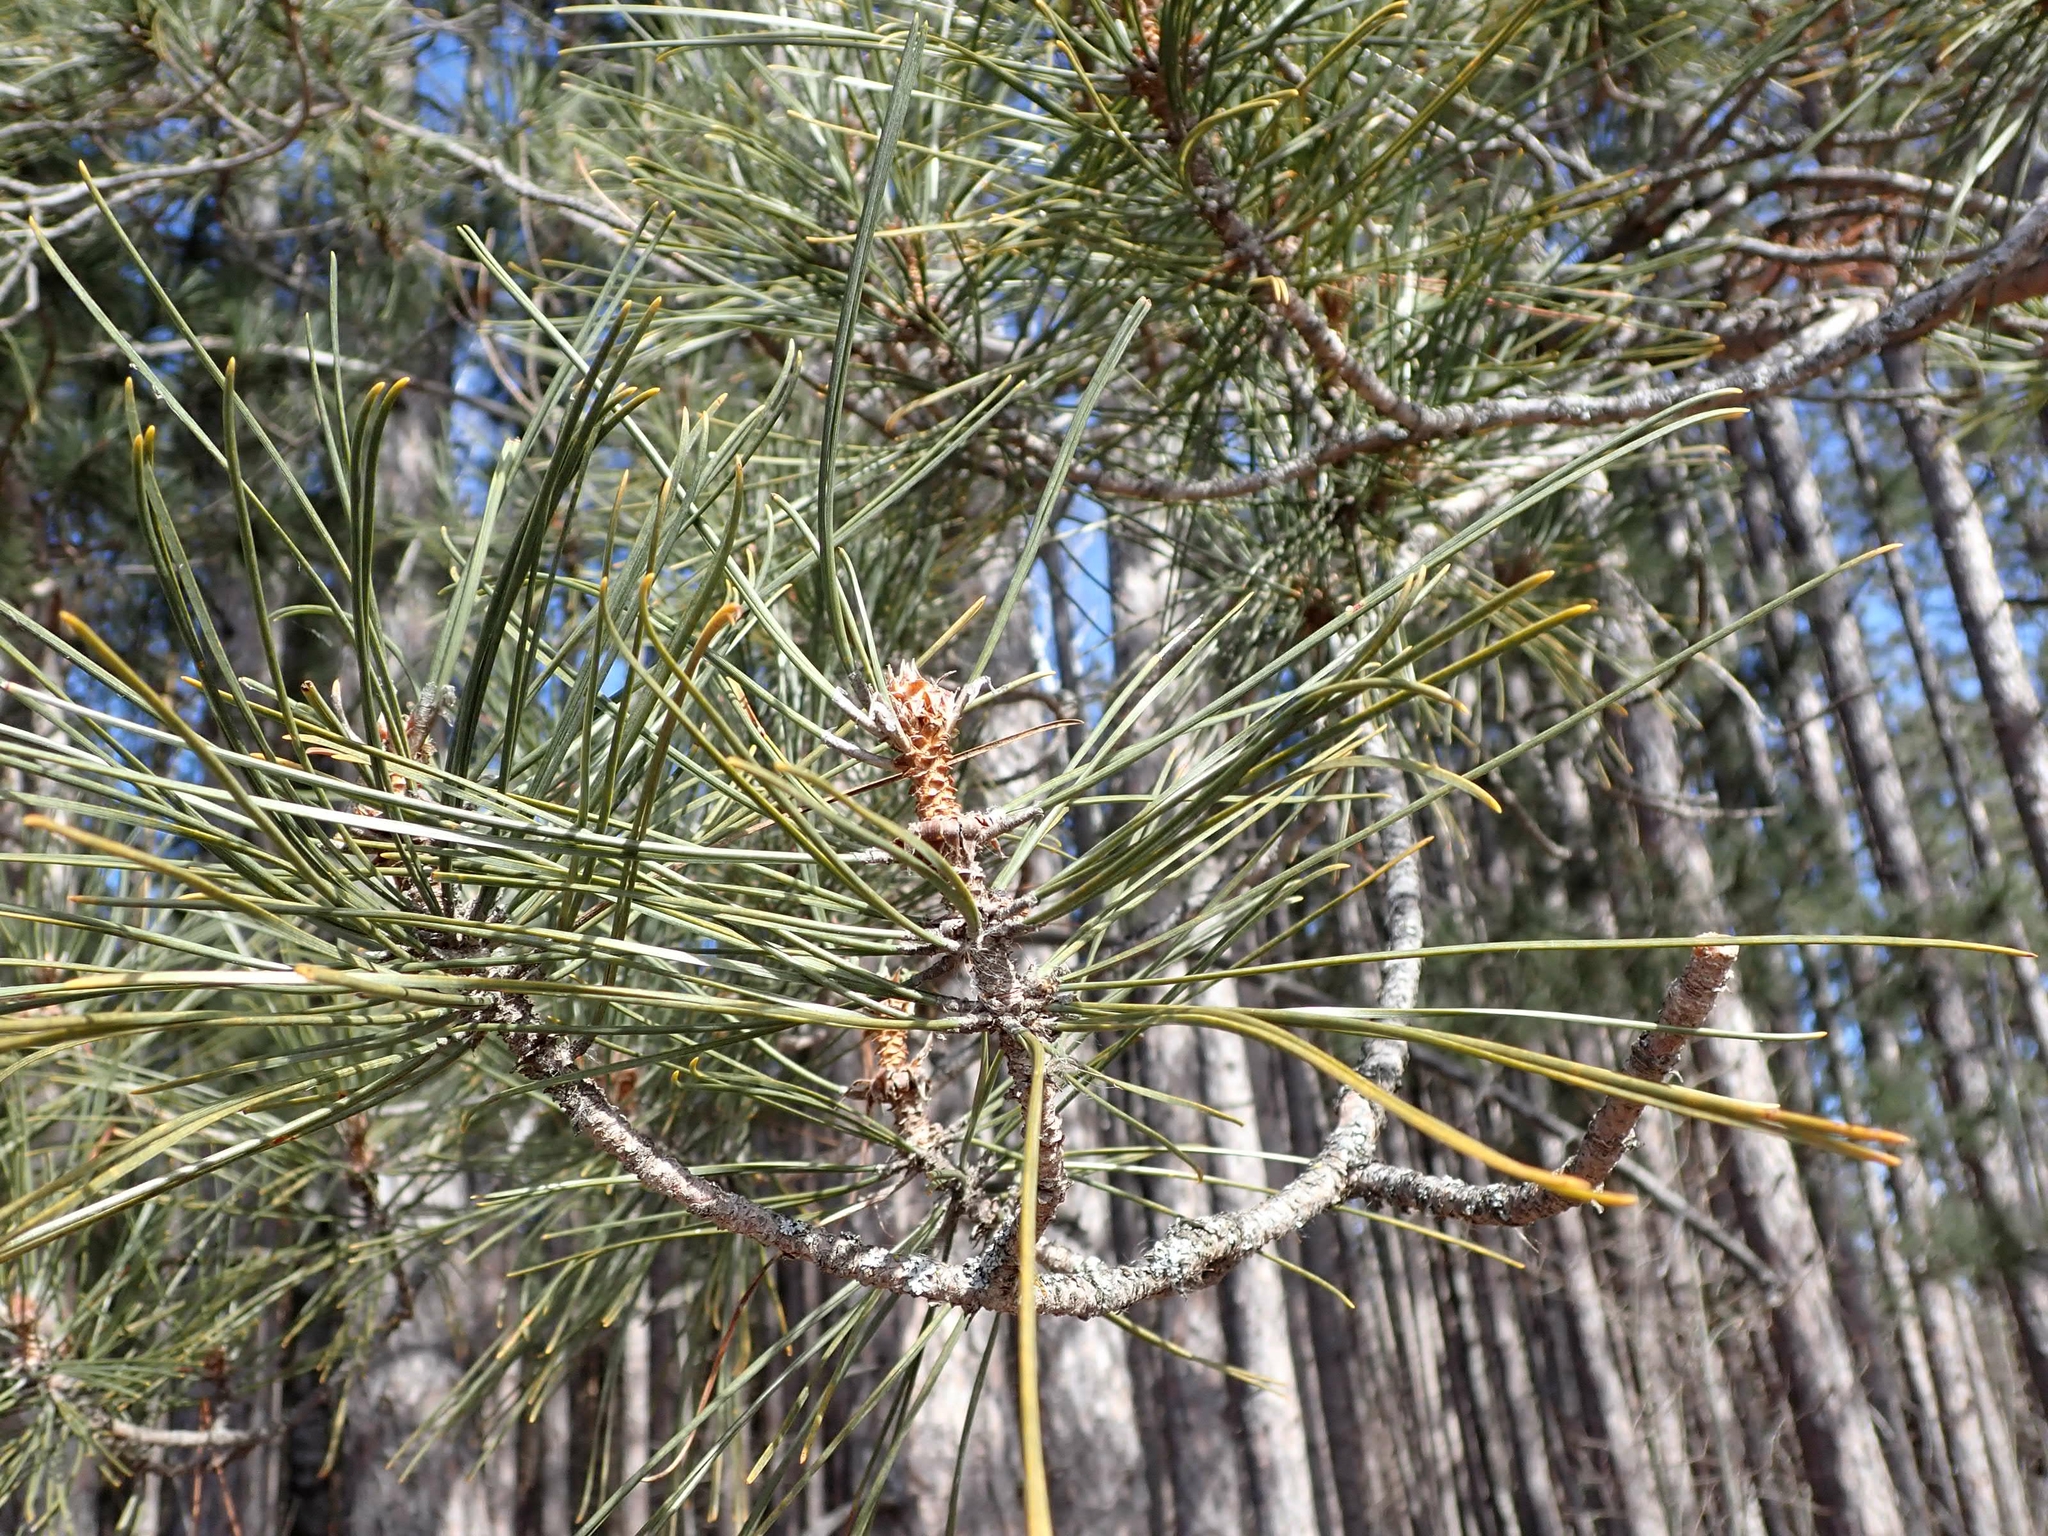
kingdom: Plantae
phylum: Tracheophyta
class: Pinopsida
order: Pinales
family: Pinaceae
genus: Pinus
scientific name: Pinus resinosa
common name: Norway pine
